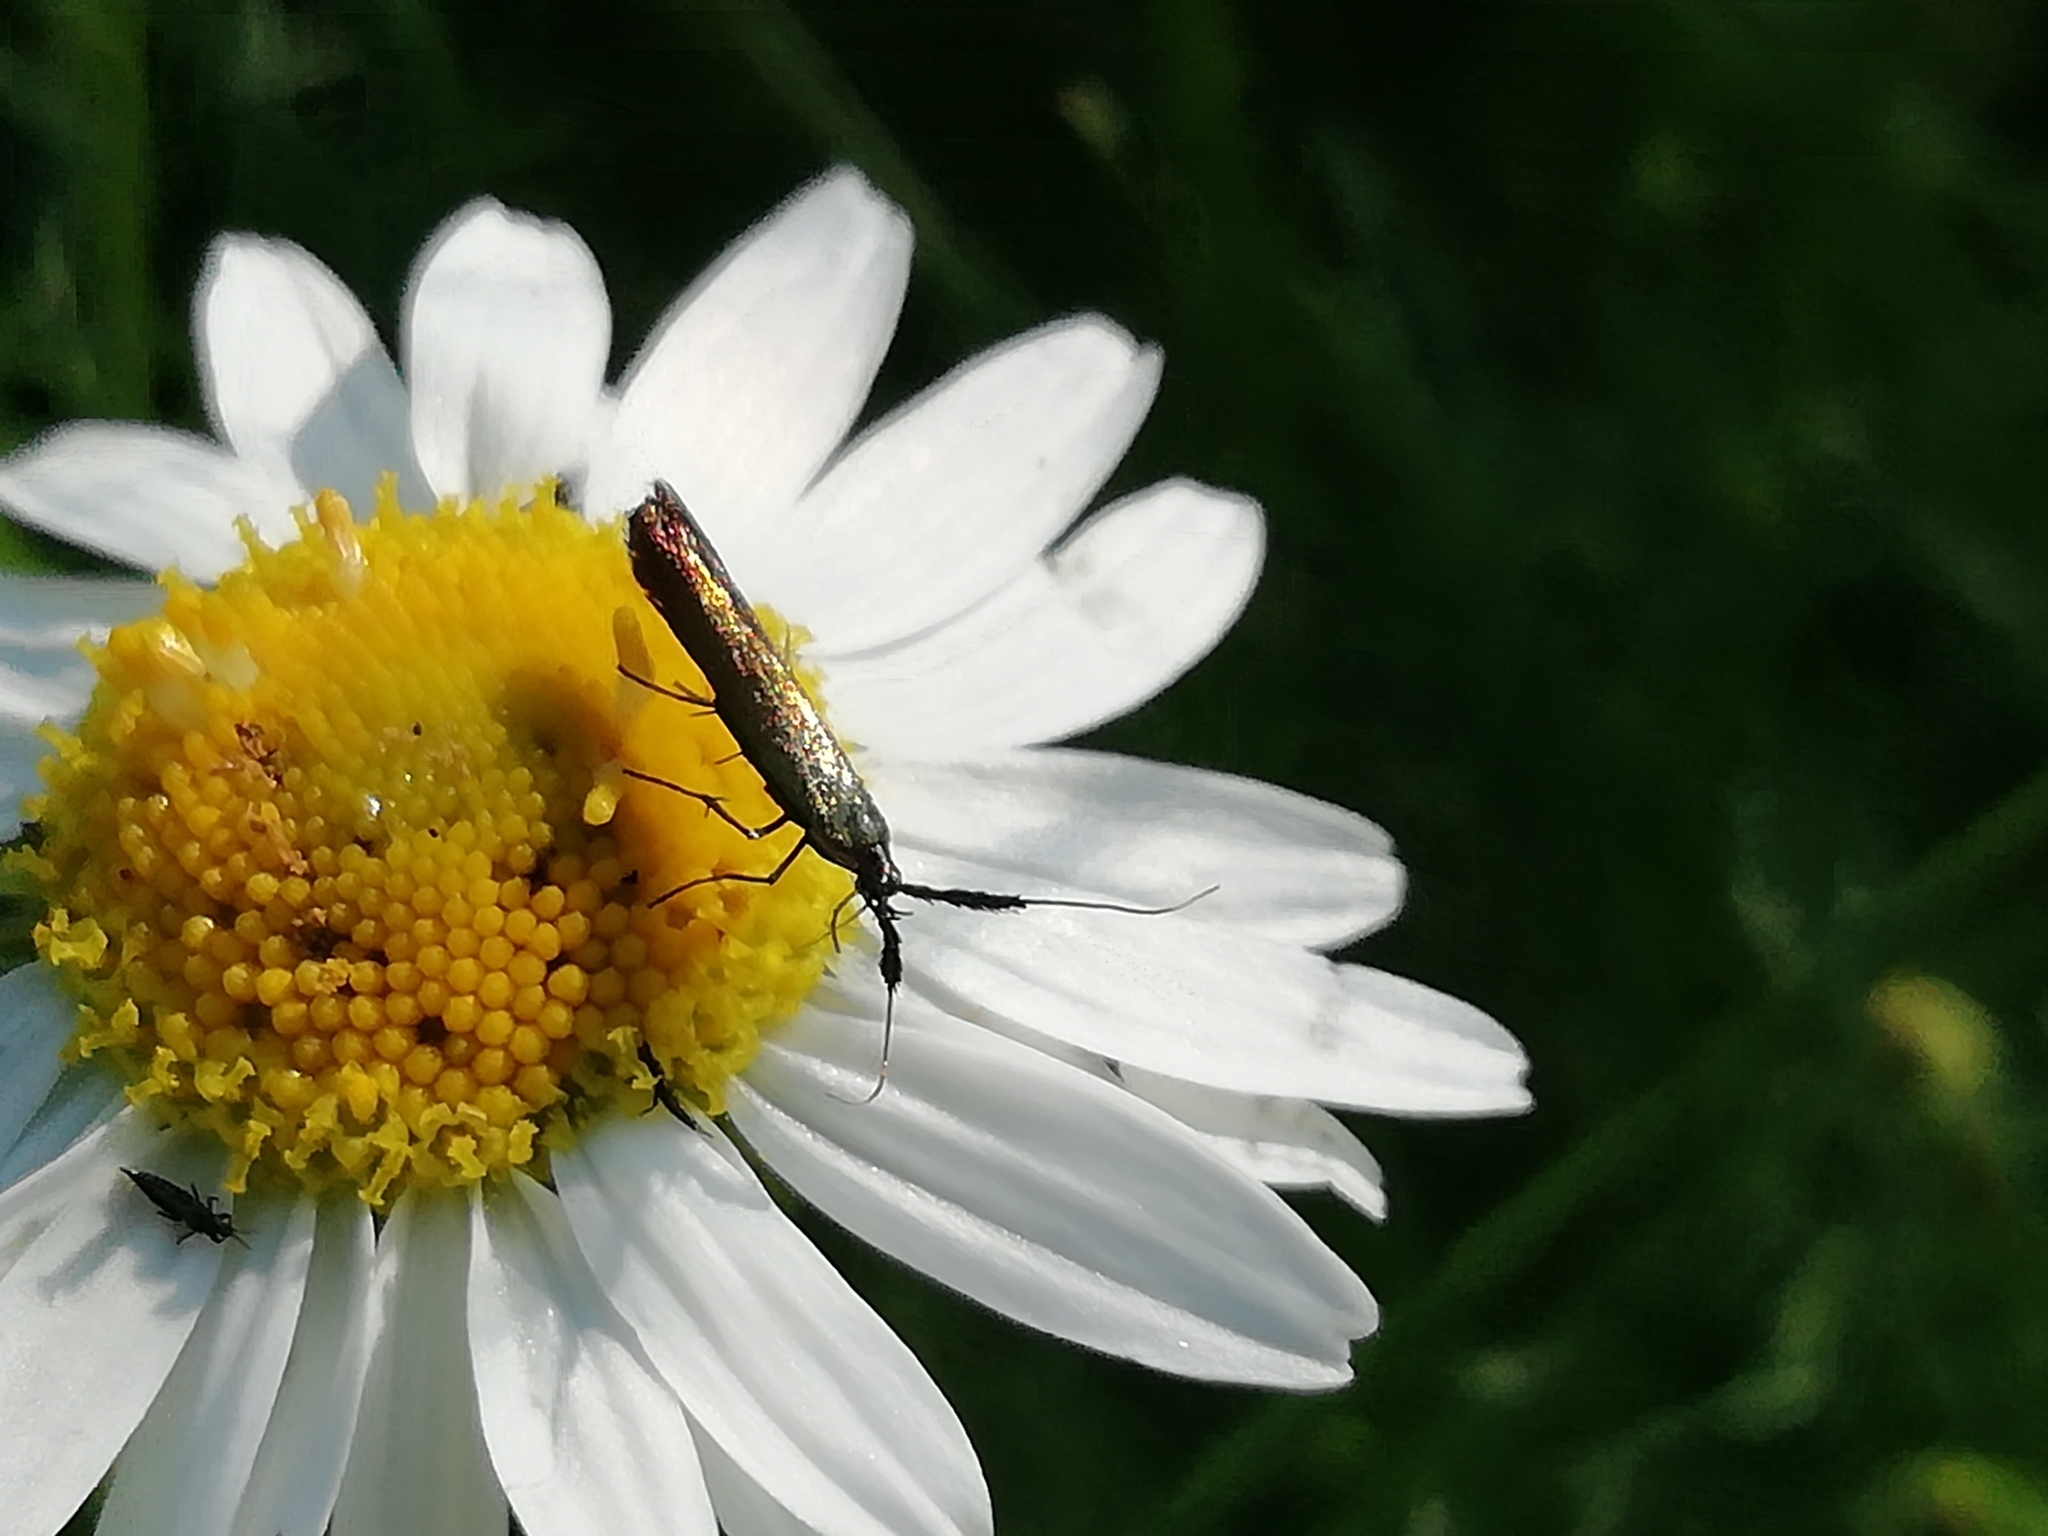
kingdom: Animalia
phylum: Arthropoda
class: Insecta
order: Lepidoptera
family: Coleophoridae
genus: Coleophora
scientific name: Coleophora mayrella
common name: Meadow case-bearer
